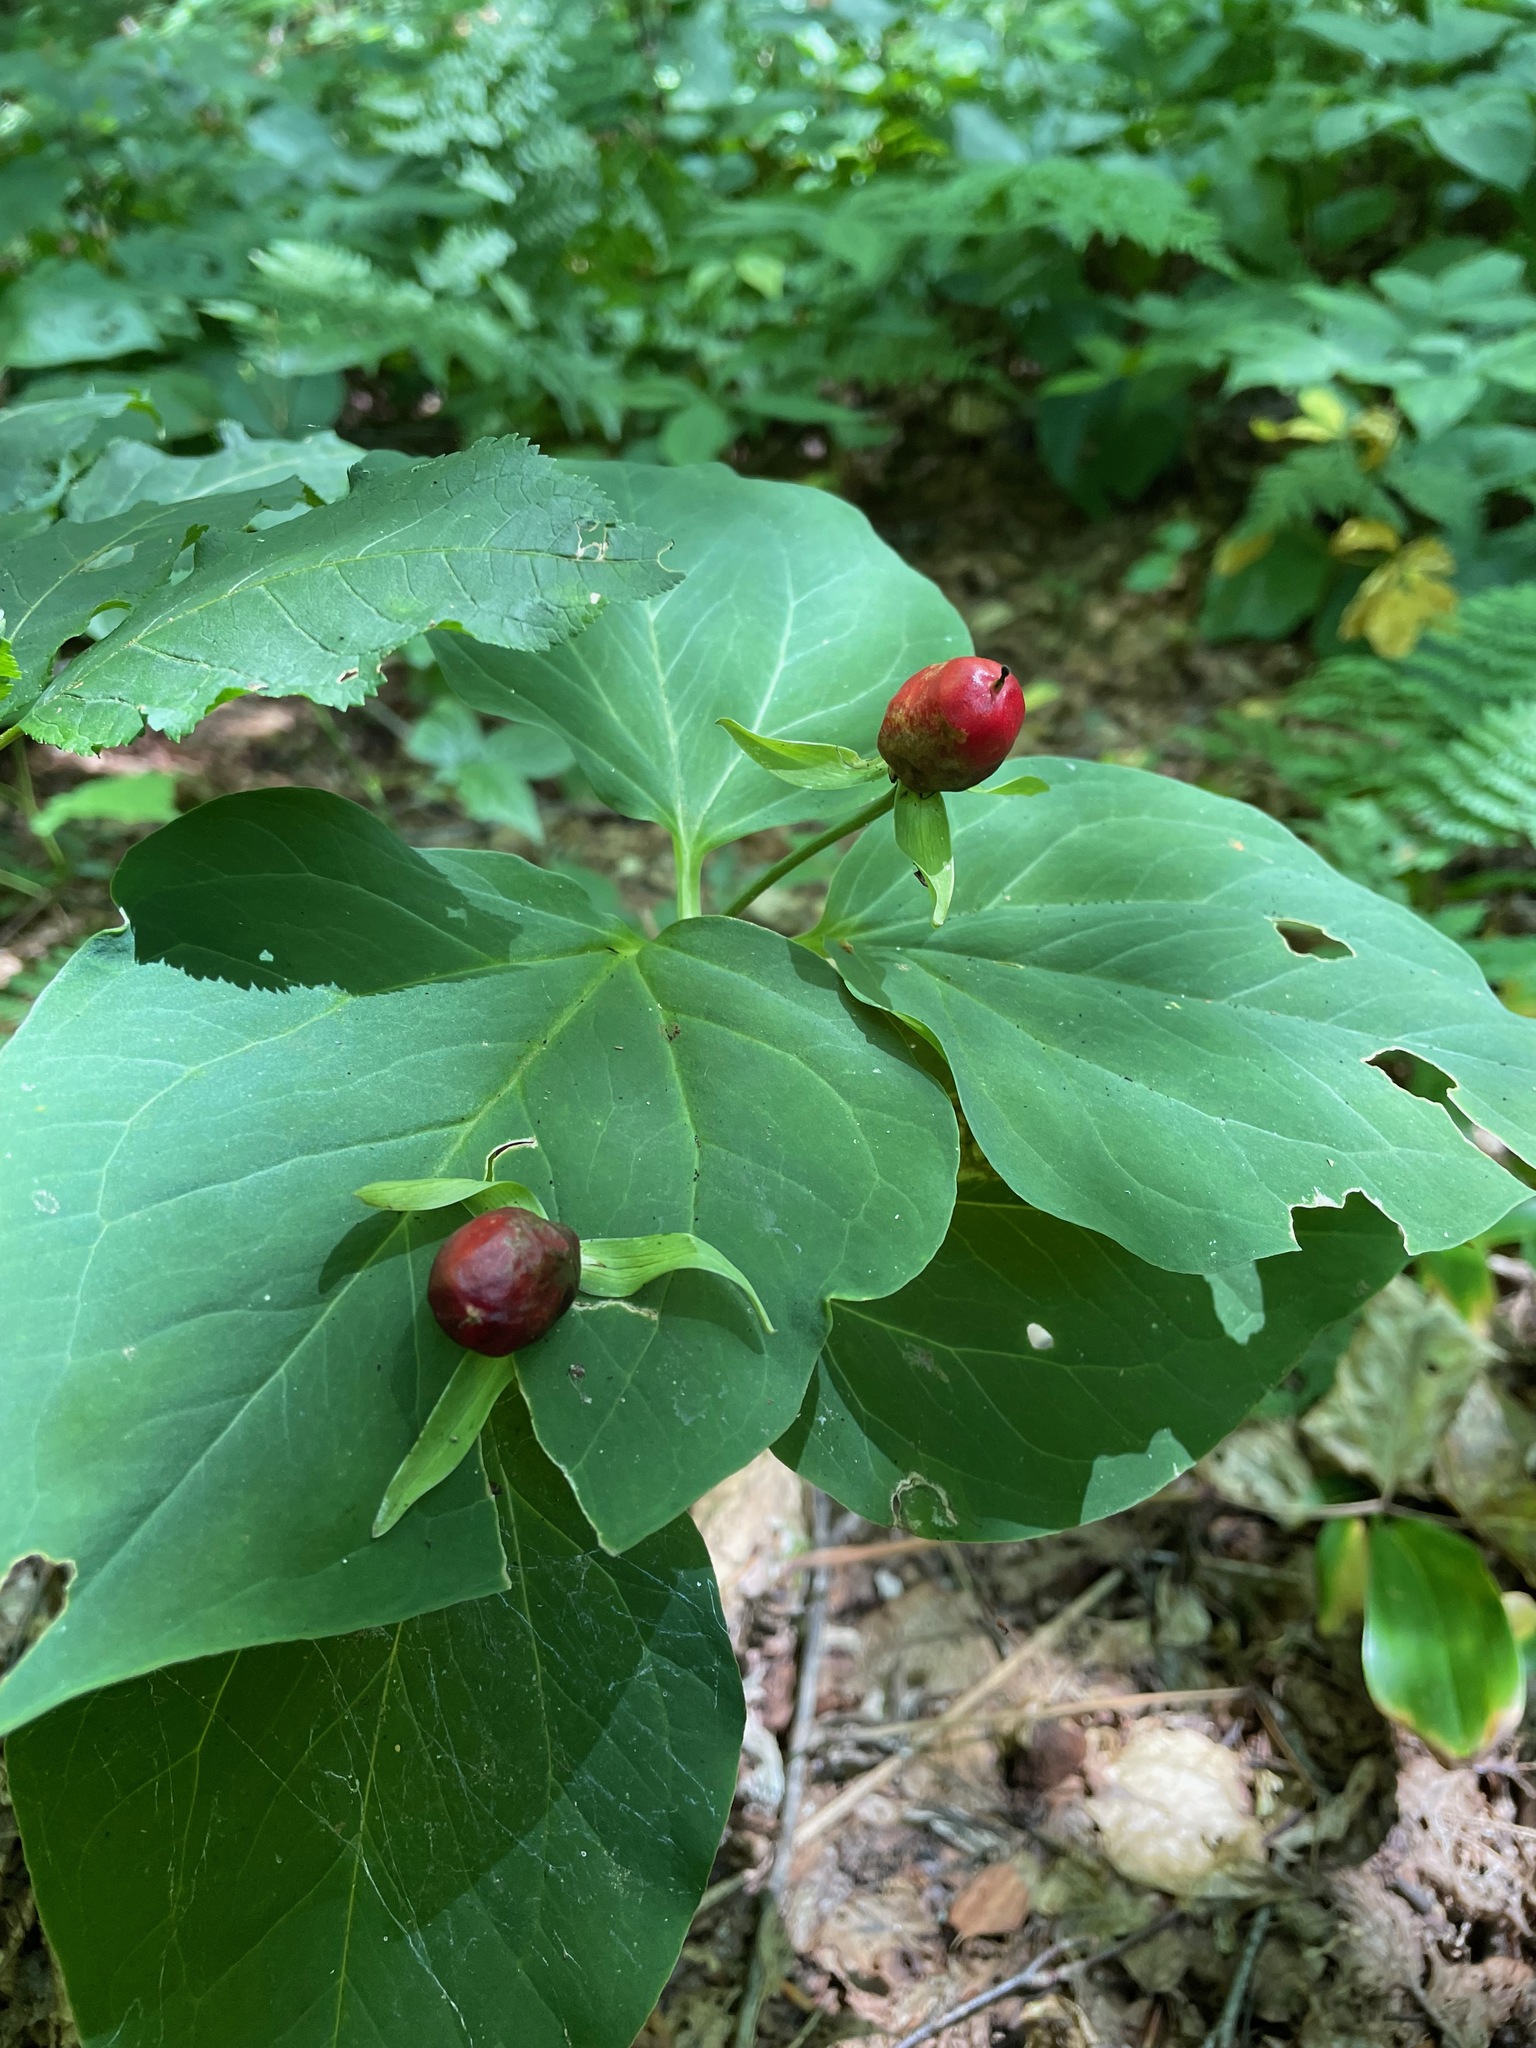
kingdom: Plantae
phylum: Tracheophyta
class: Liliopsida
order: Liliales
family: Melanthiaceae
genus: Trillium
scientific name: Trillium undulatum
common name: Paint trillium
